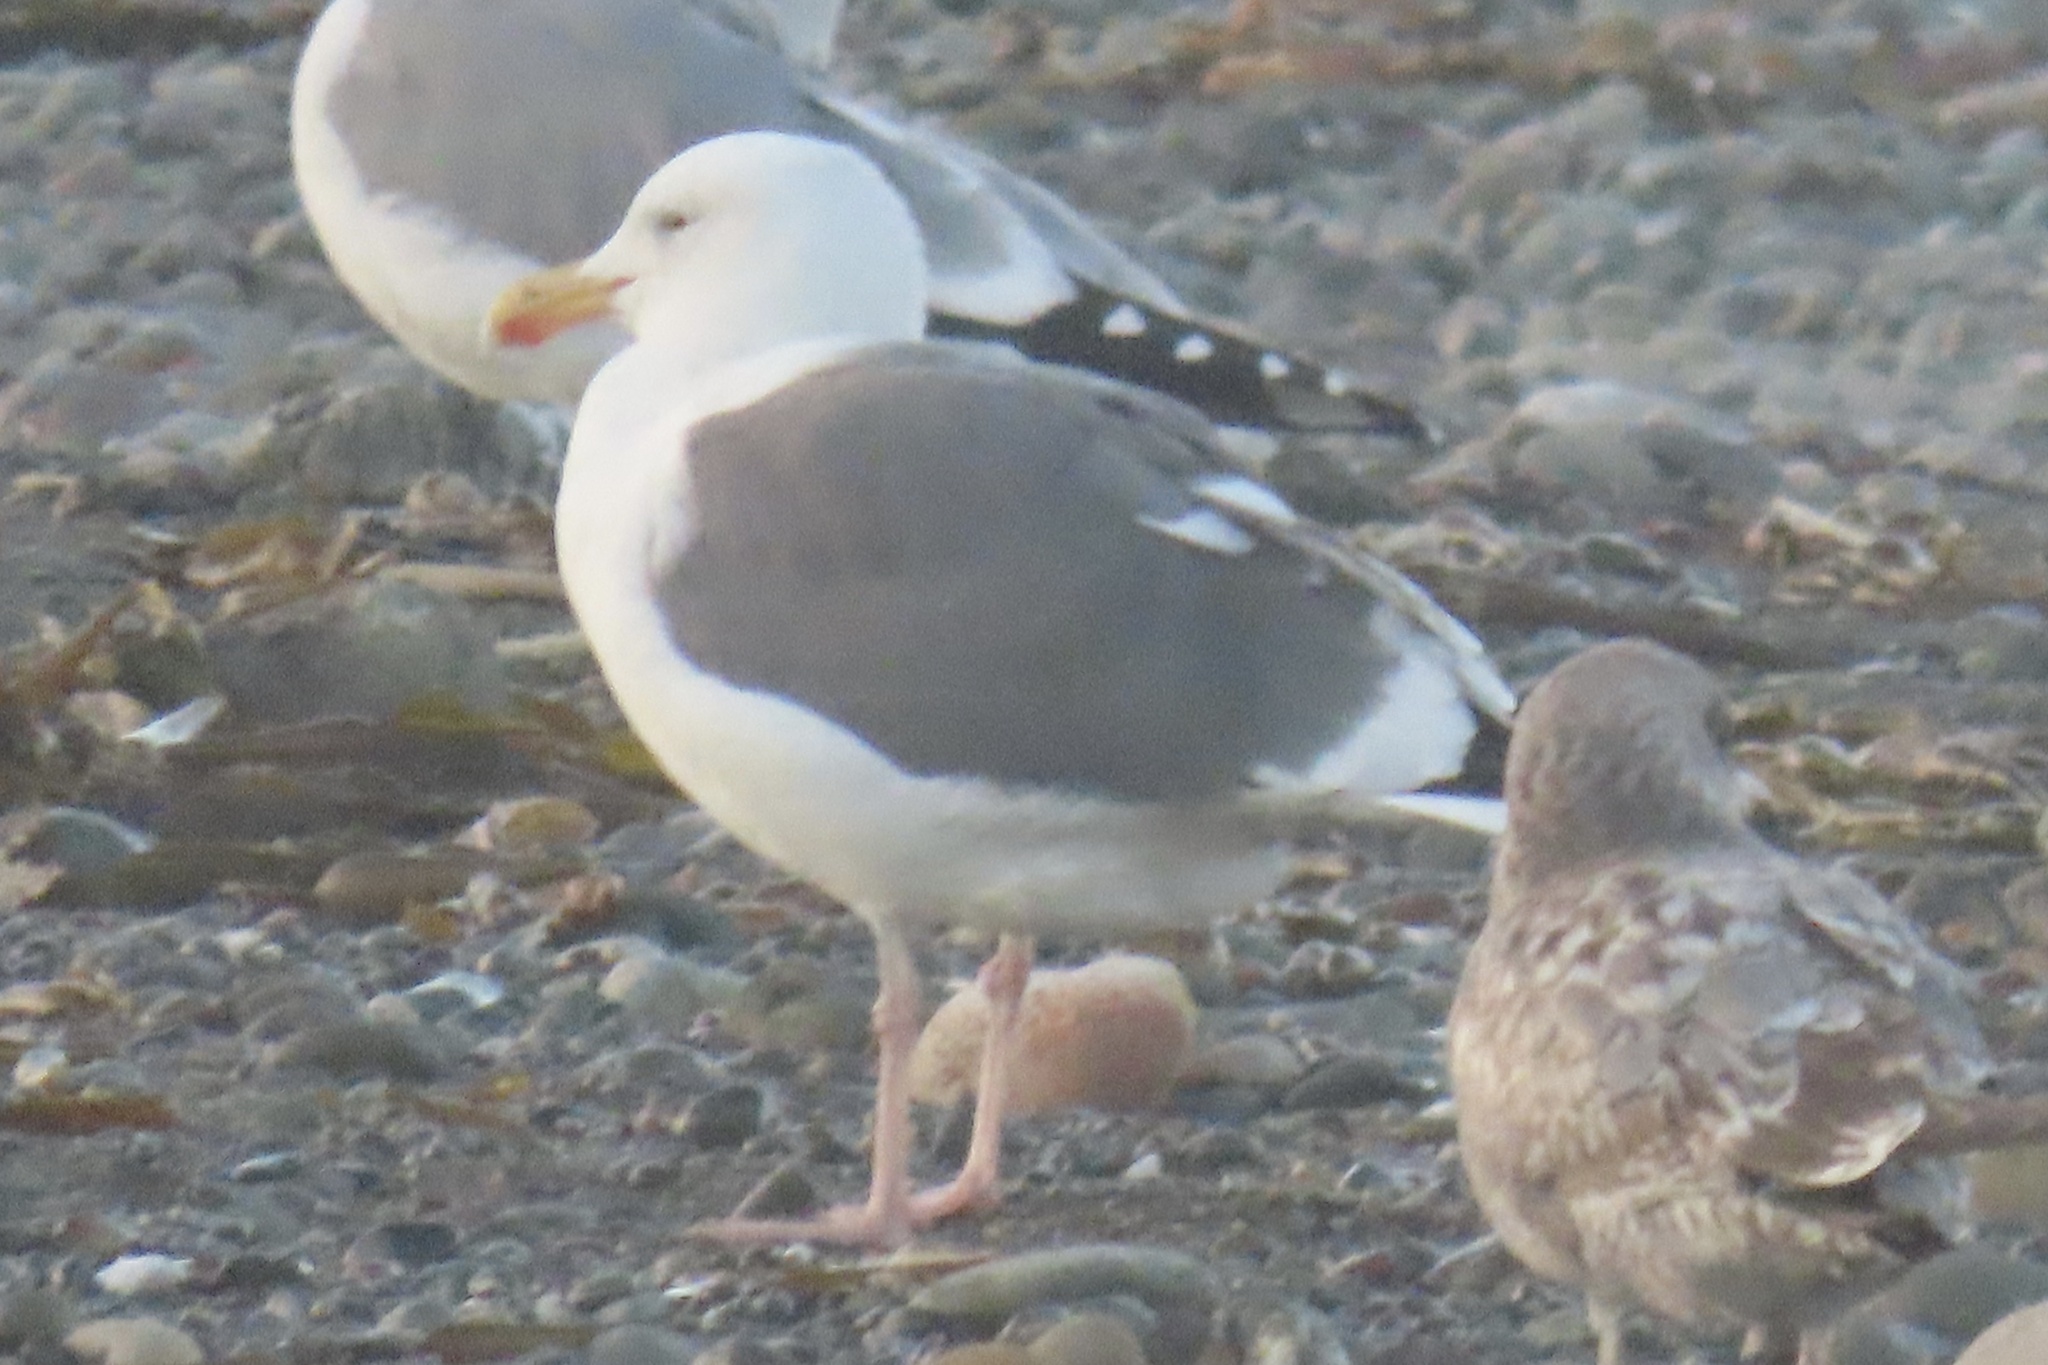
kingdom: Animalia
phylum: Chordata
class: Aves
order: Charadriiformes
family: Laridae
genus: Larus
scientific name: Larus occidentalis
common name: Western gull
